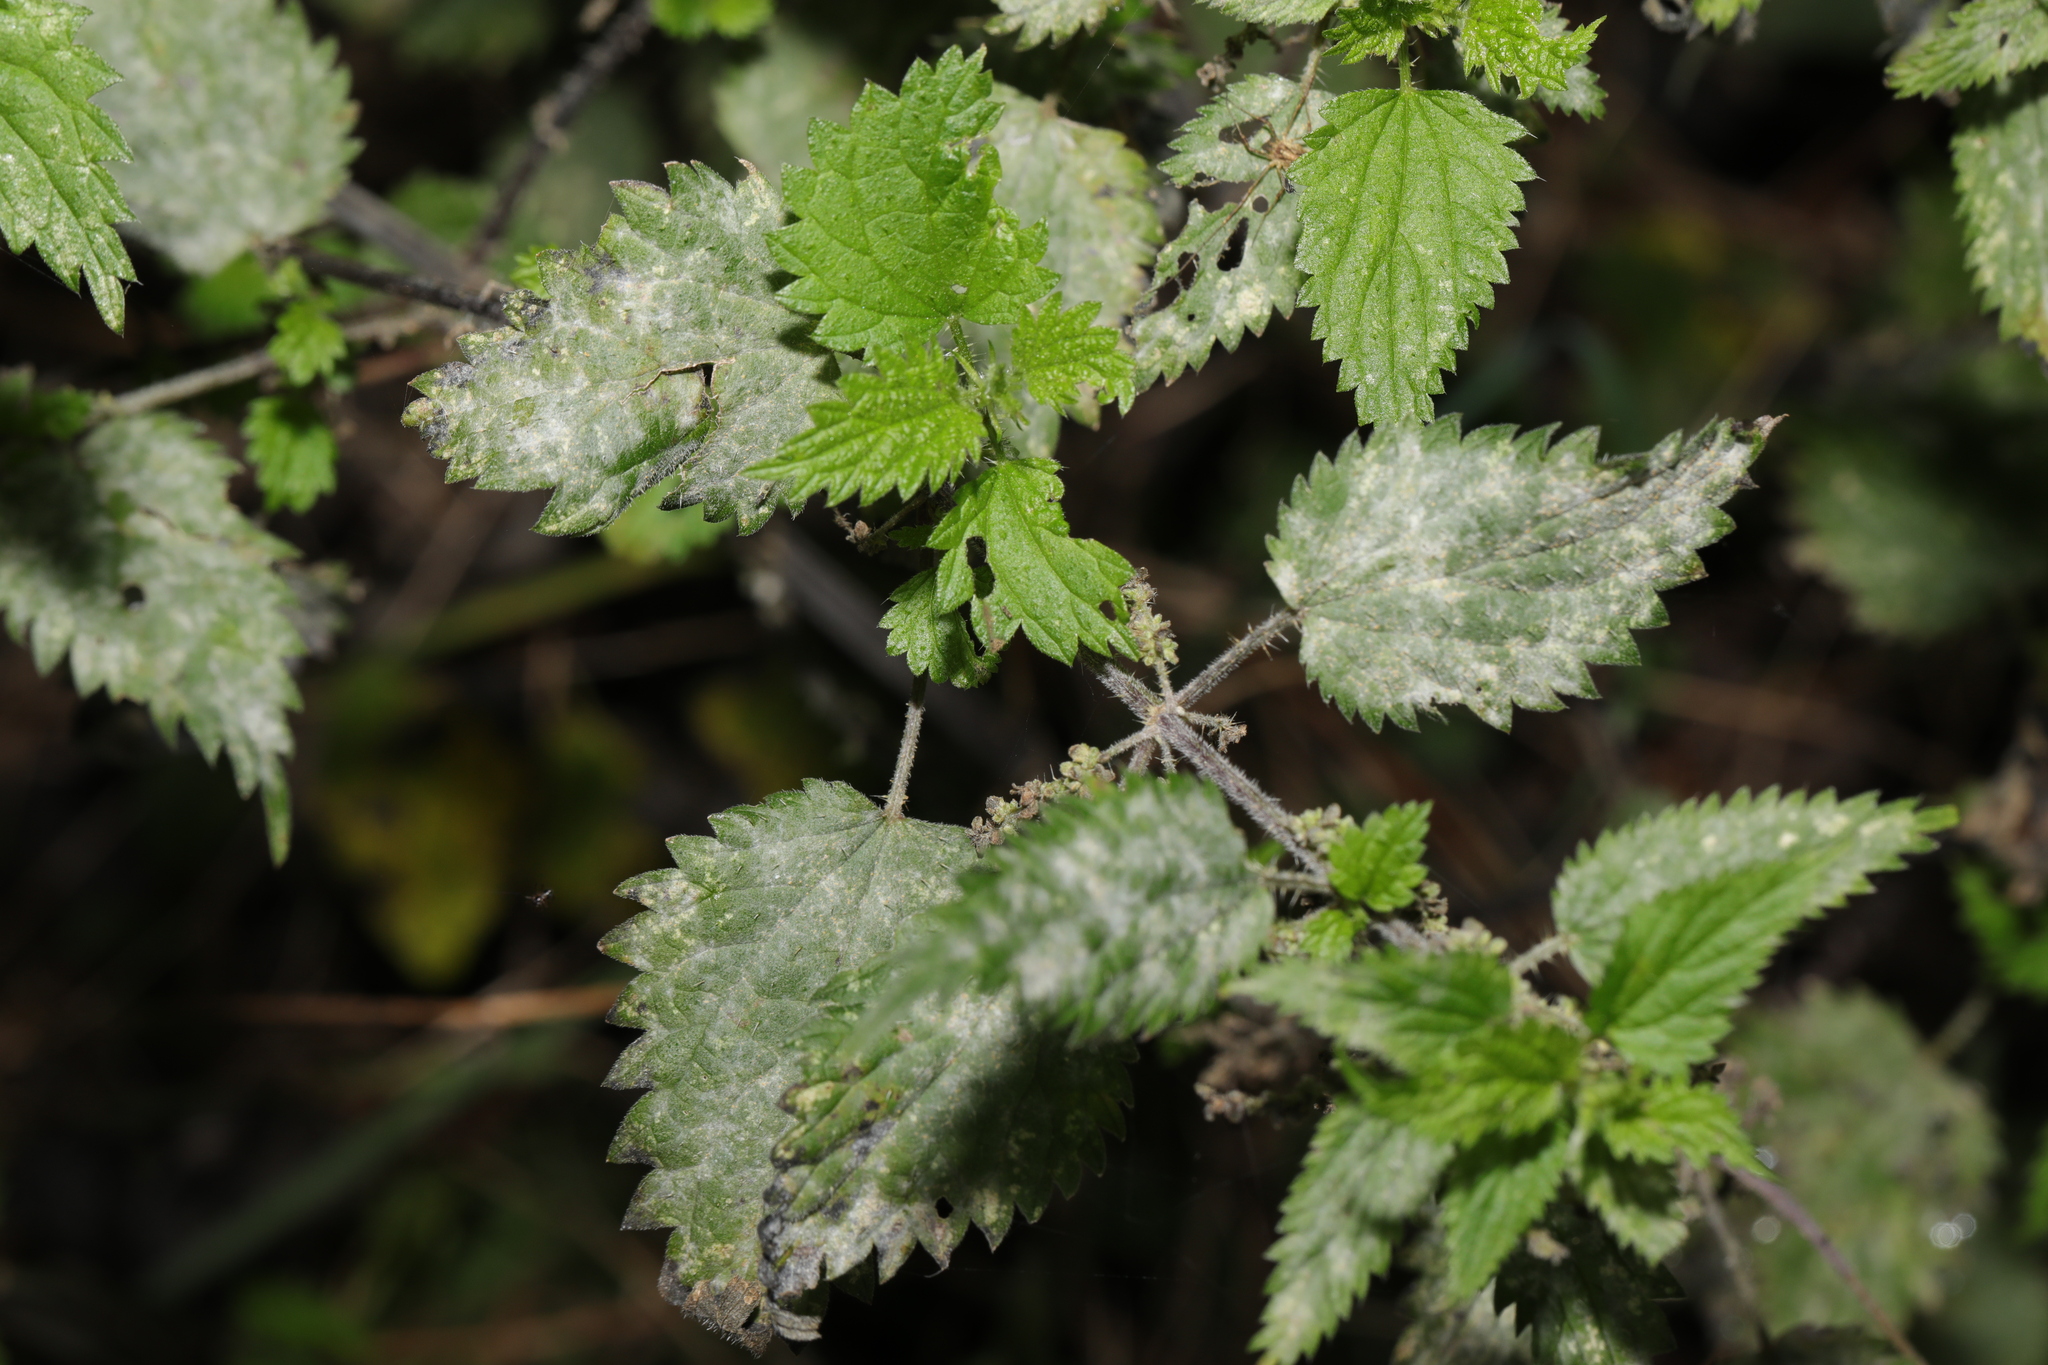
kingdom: Plantae
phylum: Tracheophyta
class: Magnoliopsida
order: Rosales
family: Urticaceae
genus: Urtica
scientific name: Urtica dioica
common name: Common nettle
